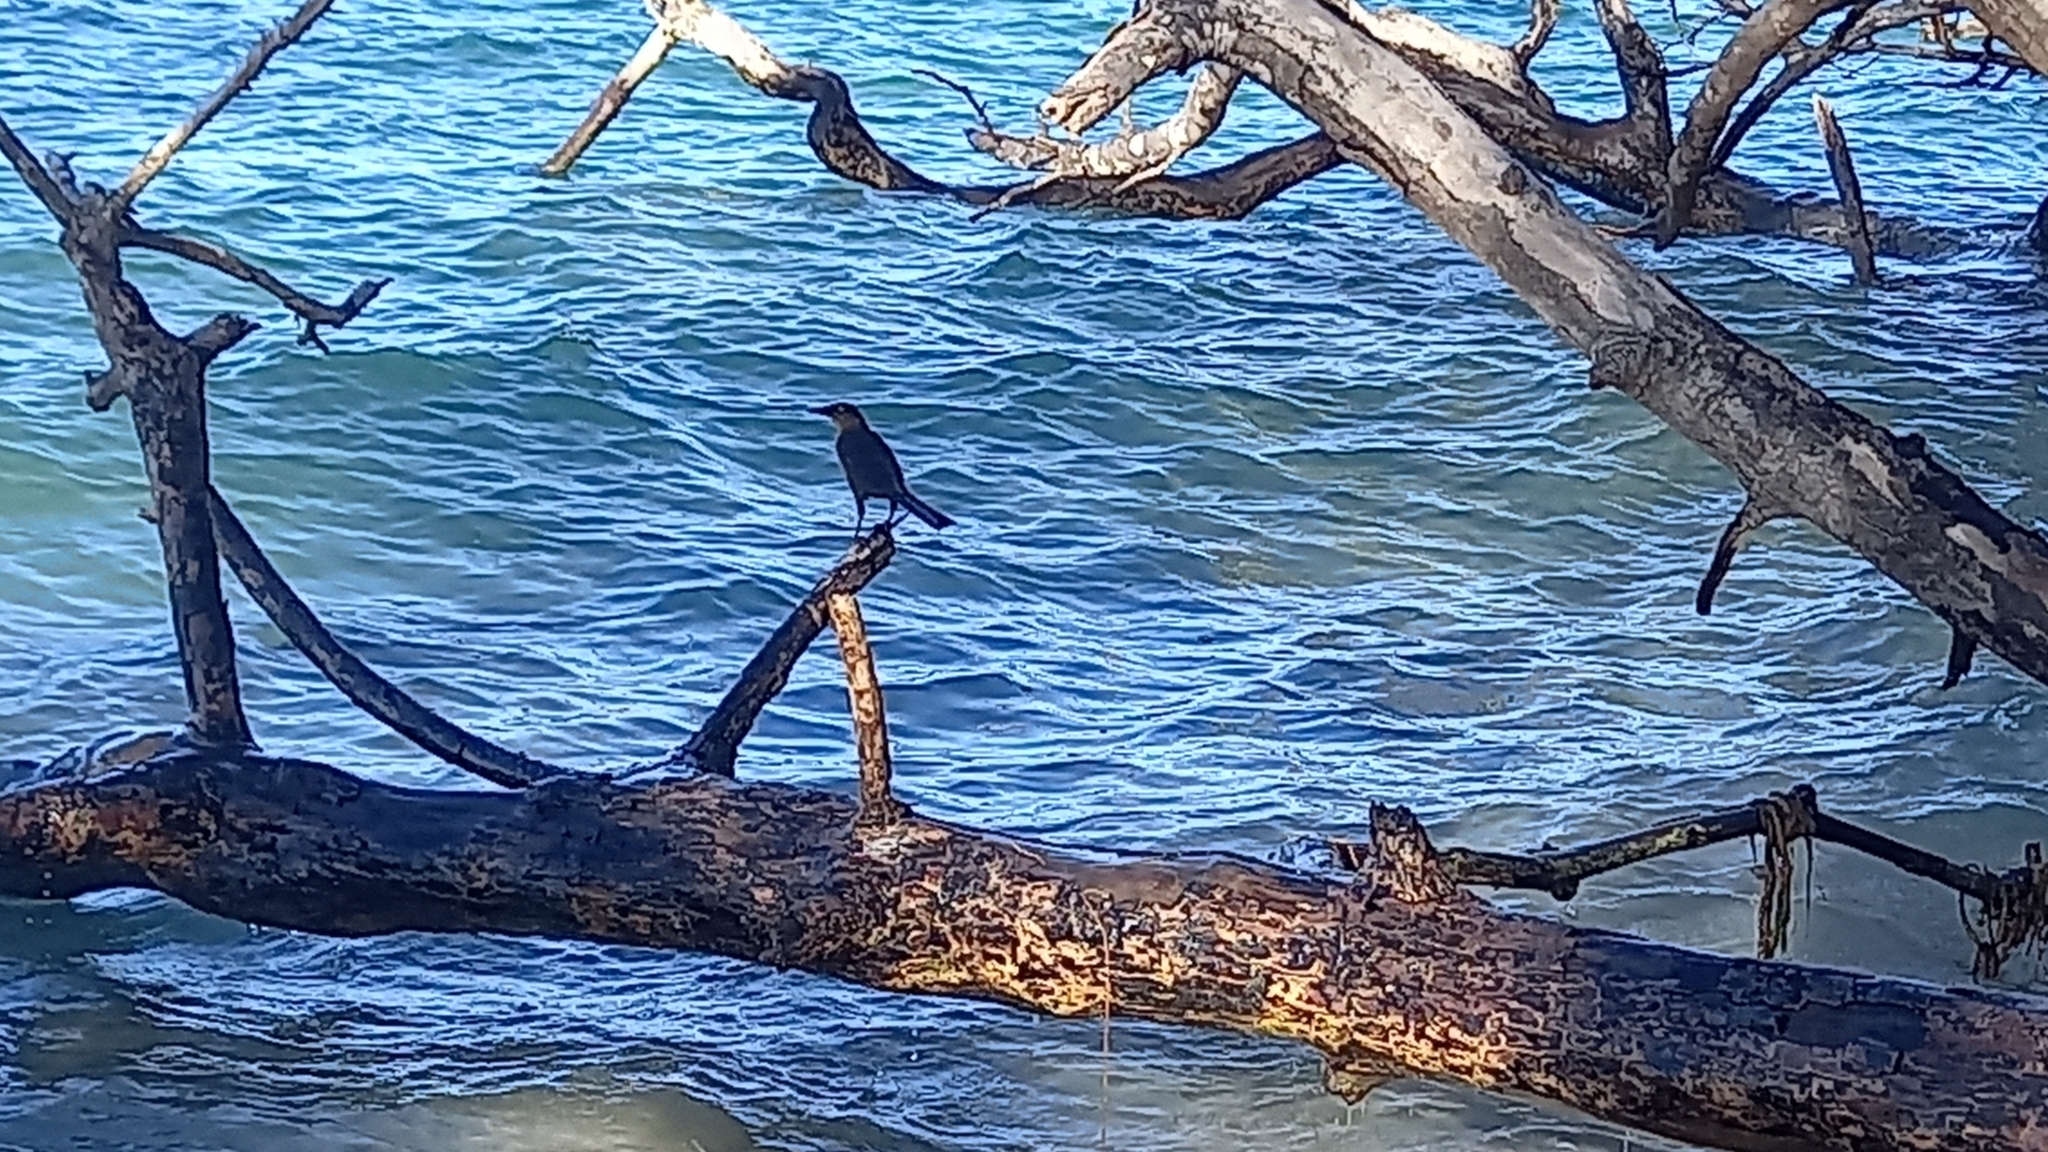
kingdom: Animalia
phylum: Chordata
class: Aves
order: Passeriformes
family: Icteridae
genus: Quiscalus
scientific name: Quiscalus mexicanus
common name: Great-tailed grackle
